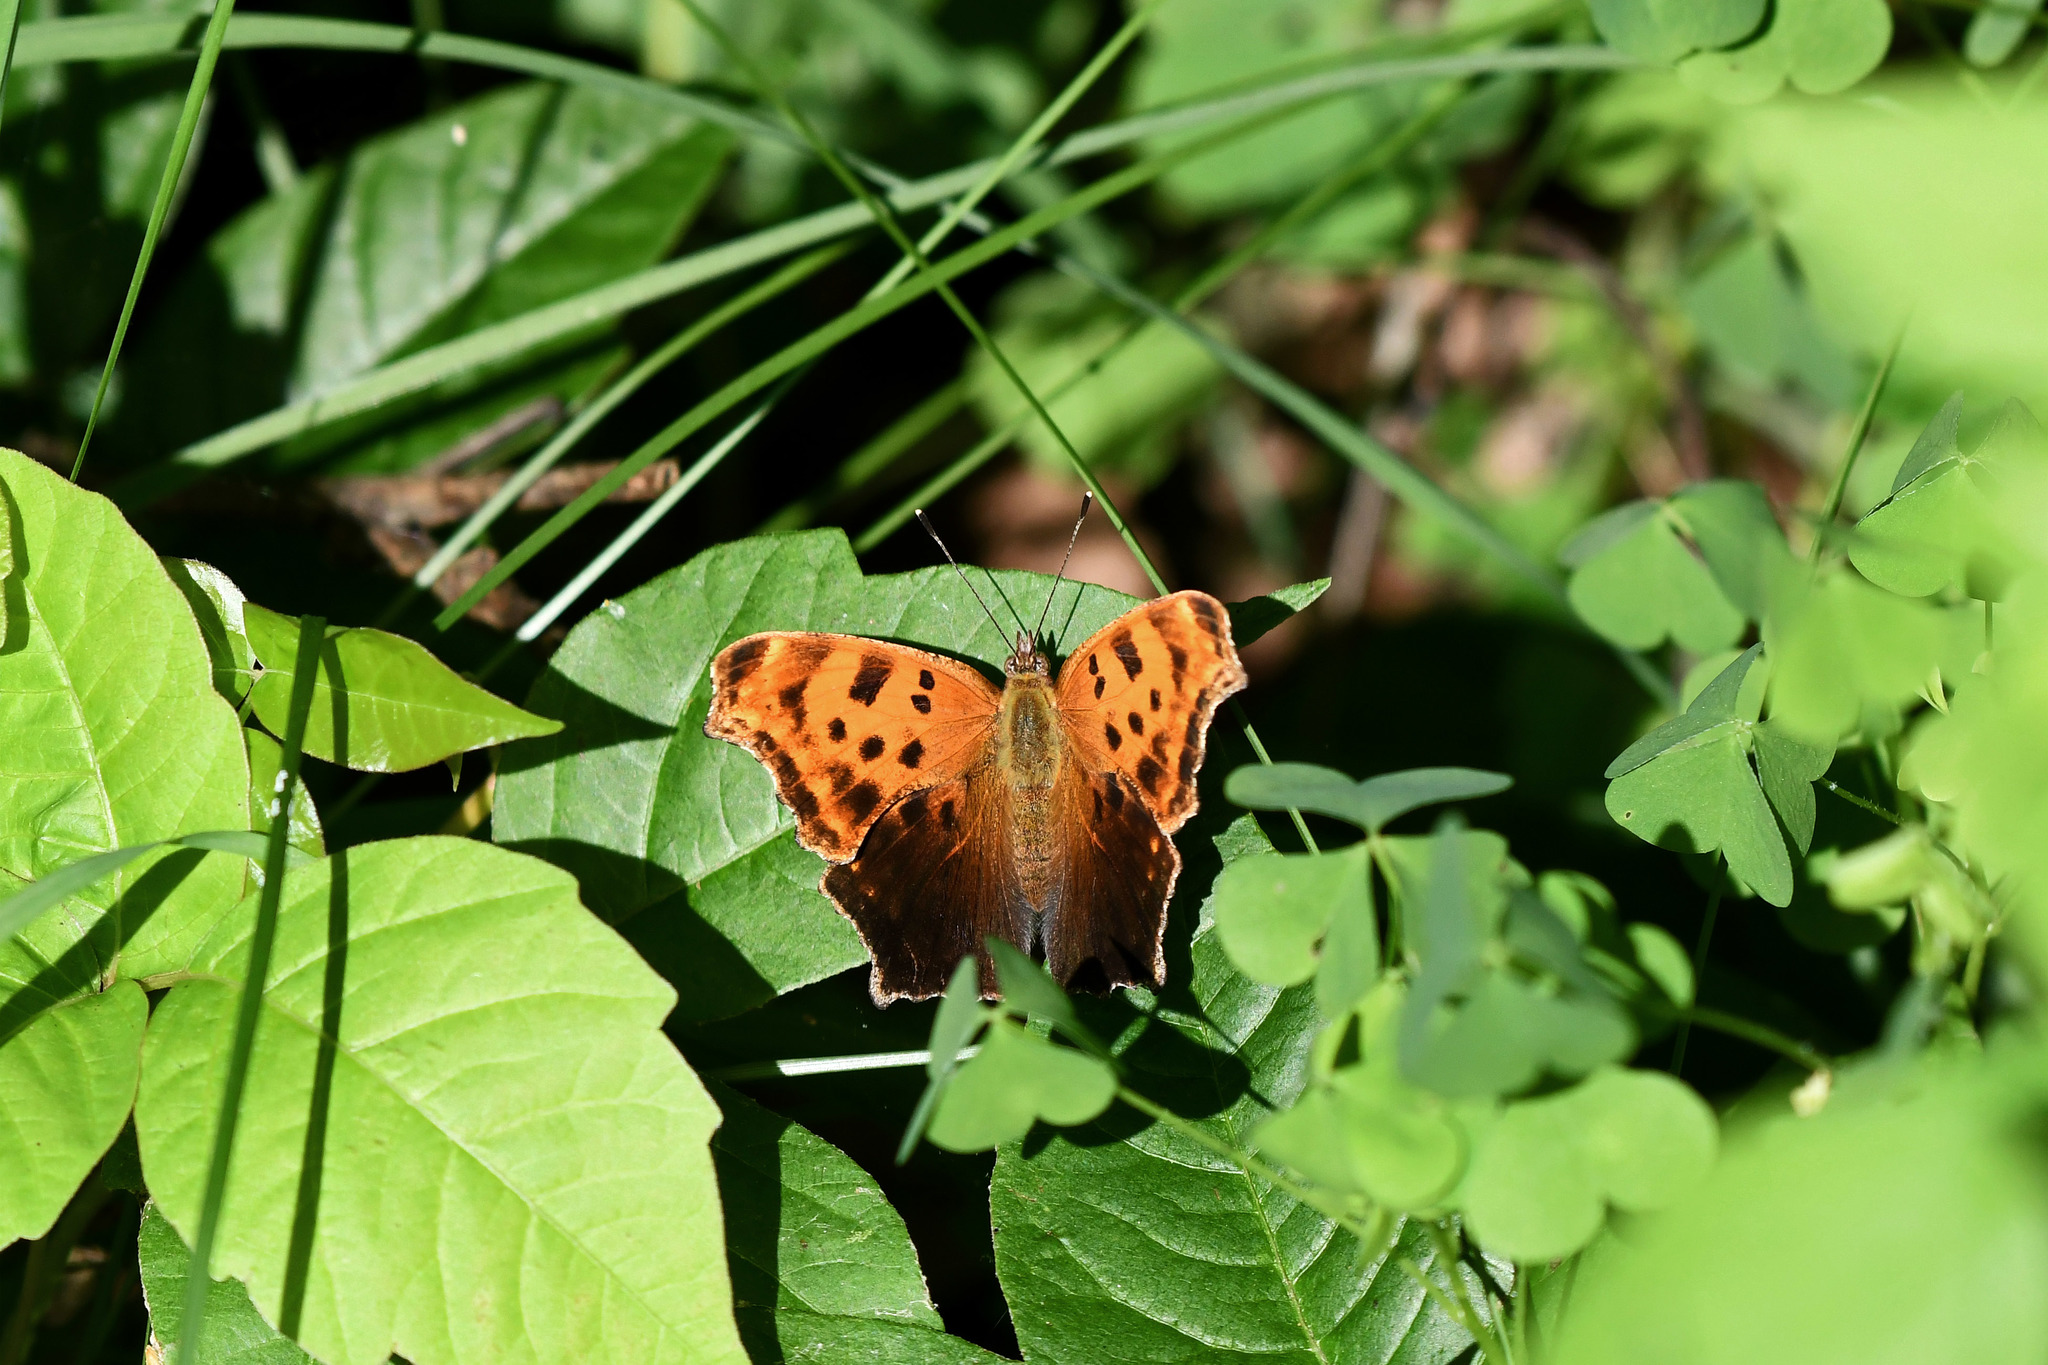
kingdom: Animalia
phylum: Arthropoda
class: Insecta
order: Lepidoptera
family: Nymphalidae
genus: Polygonia
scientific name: Polygonia comma
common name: Eastern comma
